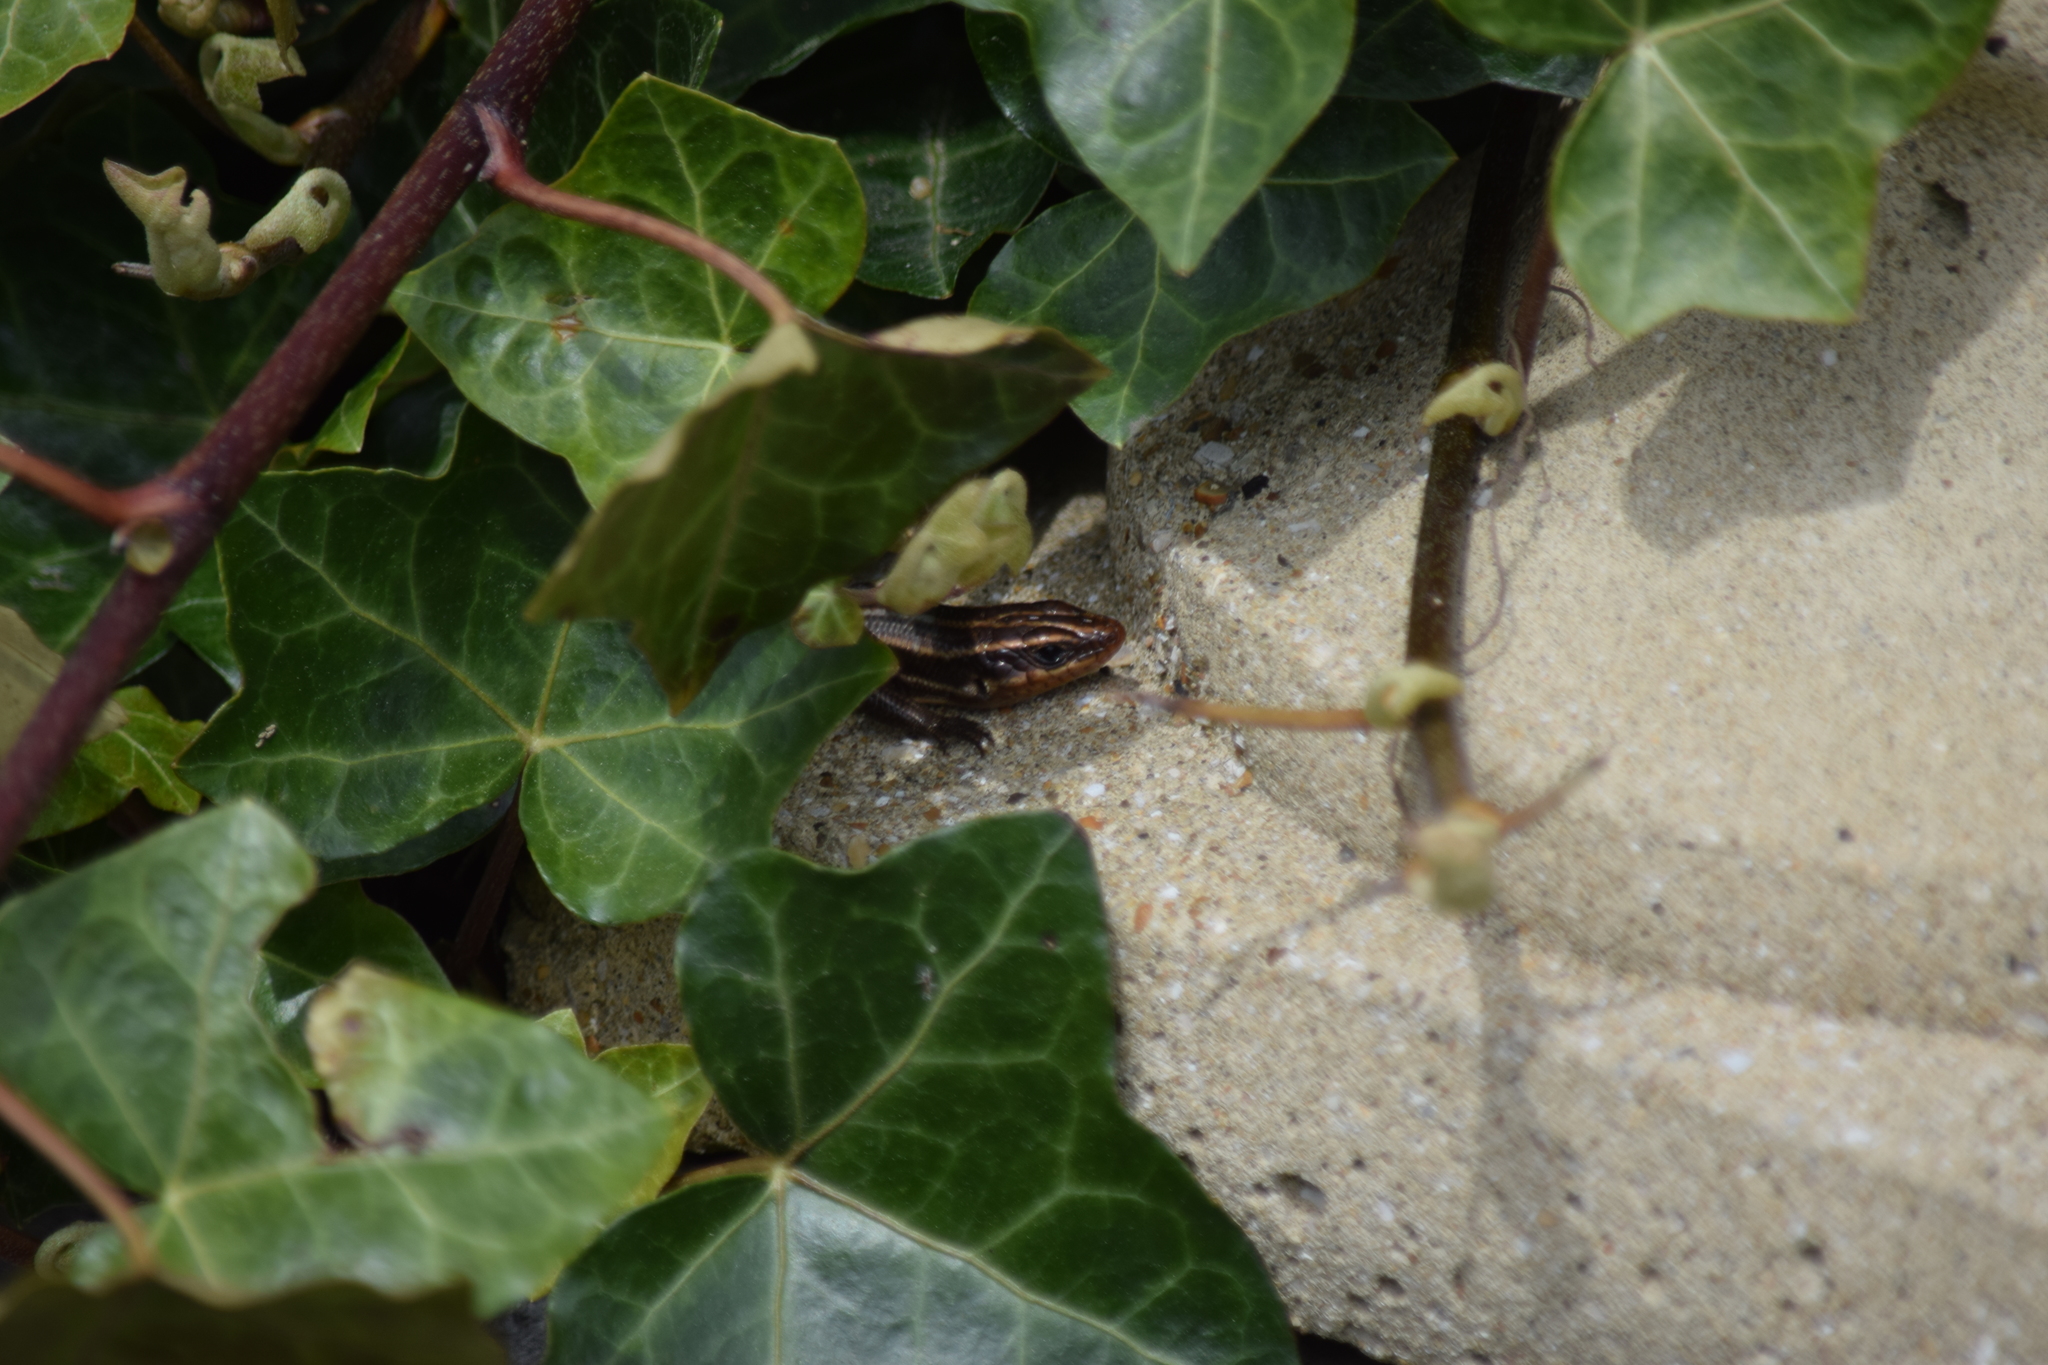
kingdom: Animalia
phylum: Chordata
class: Squamata
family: Scincidae
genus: Plestiodon
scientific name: Plestiodon fasciatus
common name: Five-lined skink
